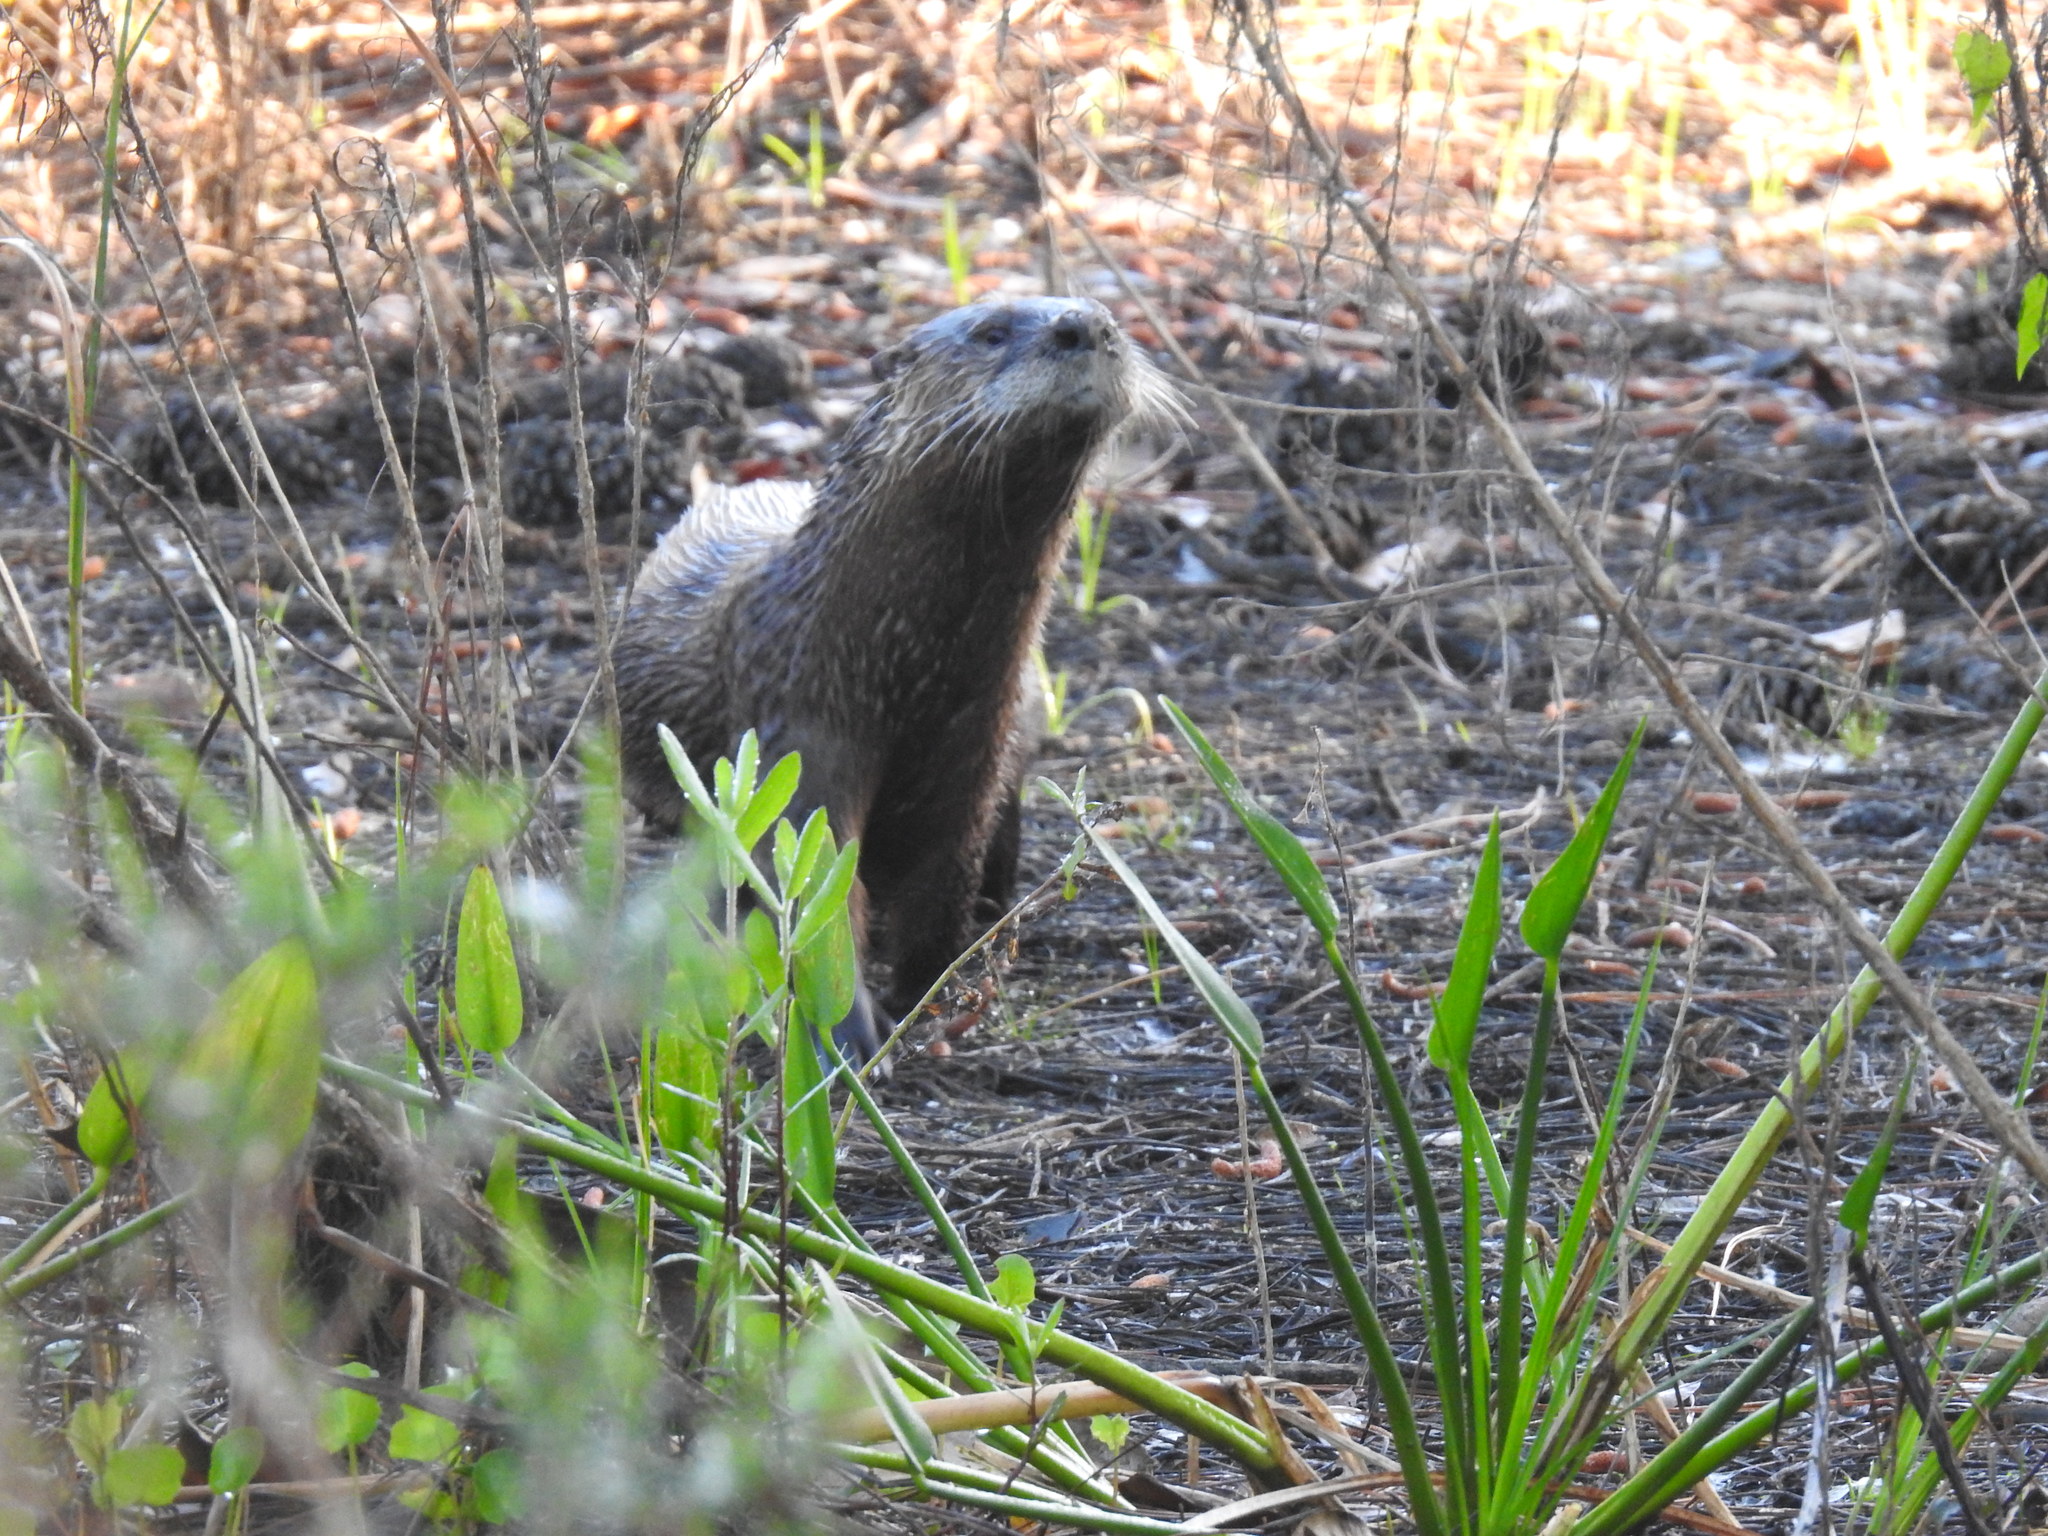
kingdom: Animalia
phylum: Chordata
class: Mammalia
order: Carnivora
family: Mustelidae
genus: Lontra
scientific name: Lontra canadensis
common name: North american river otter
